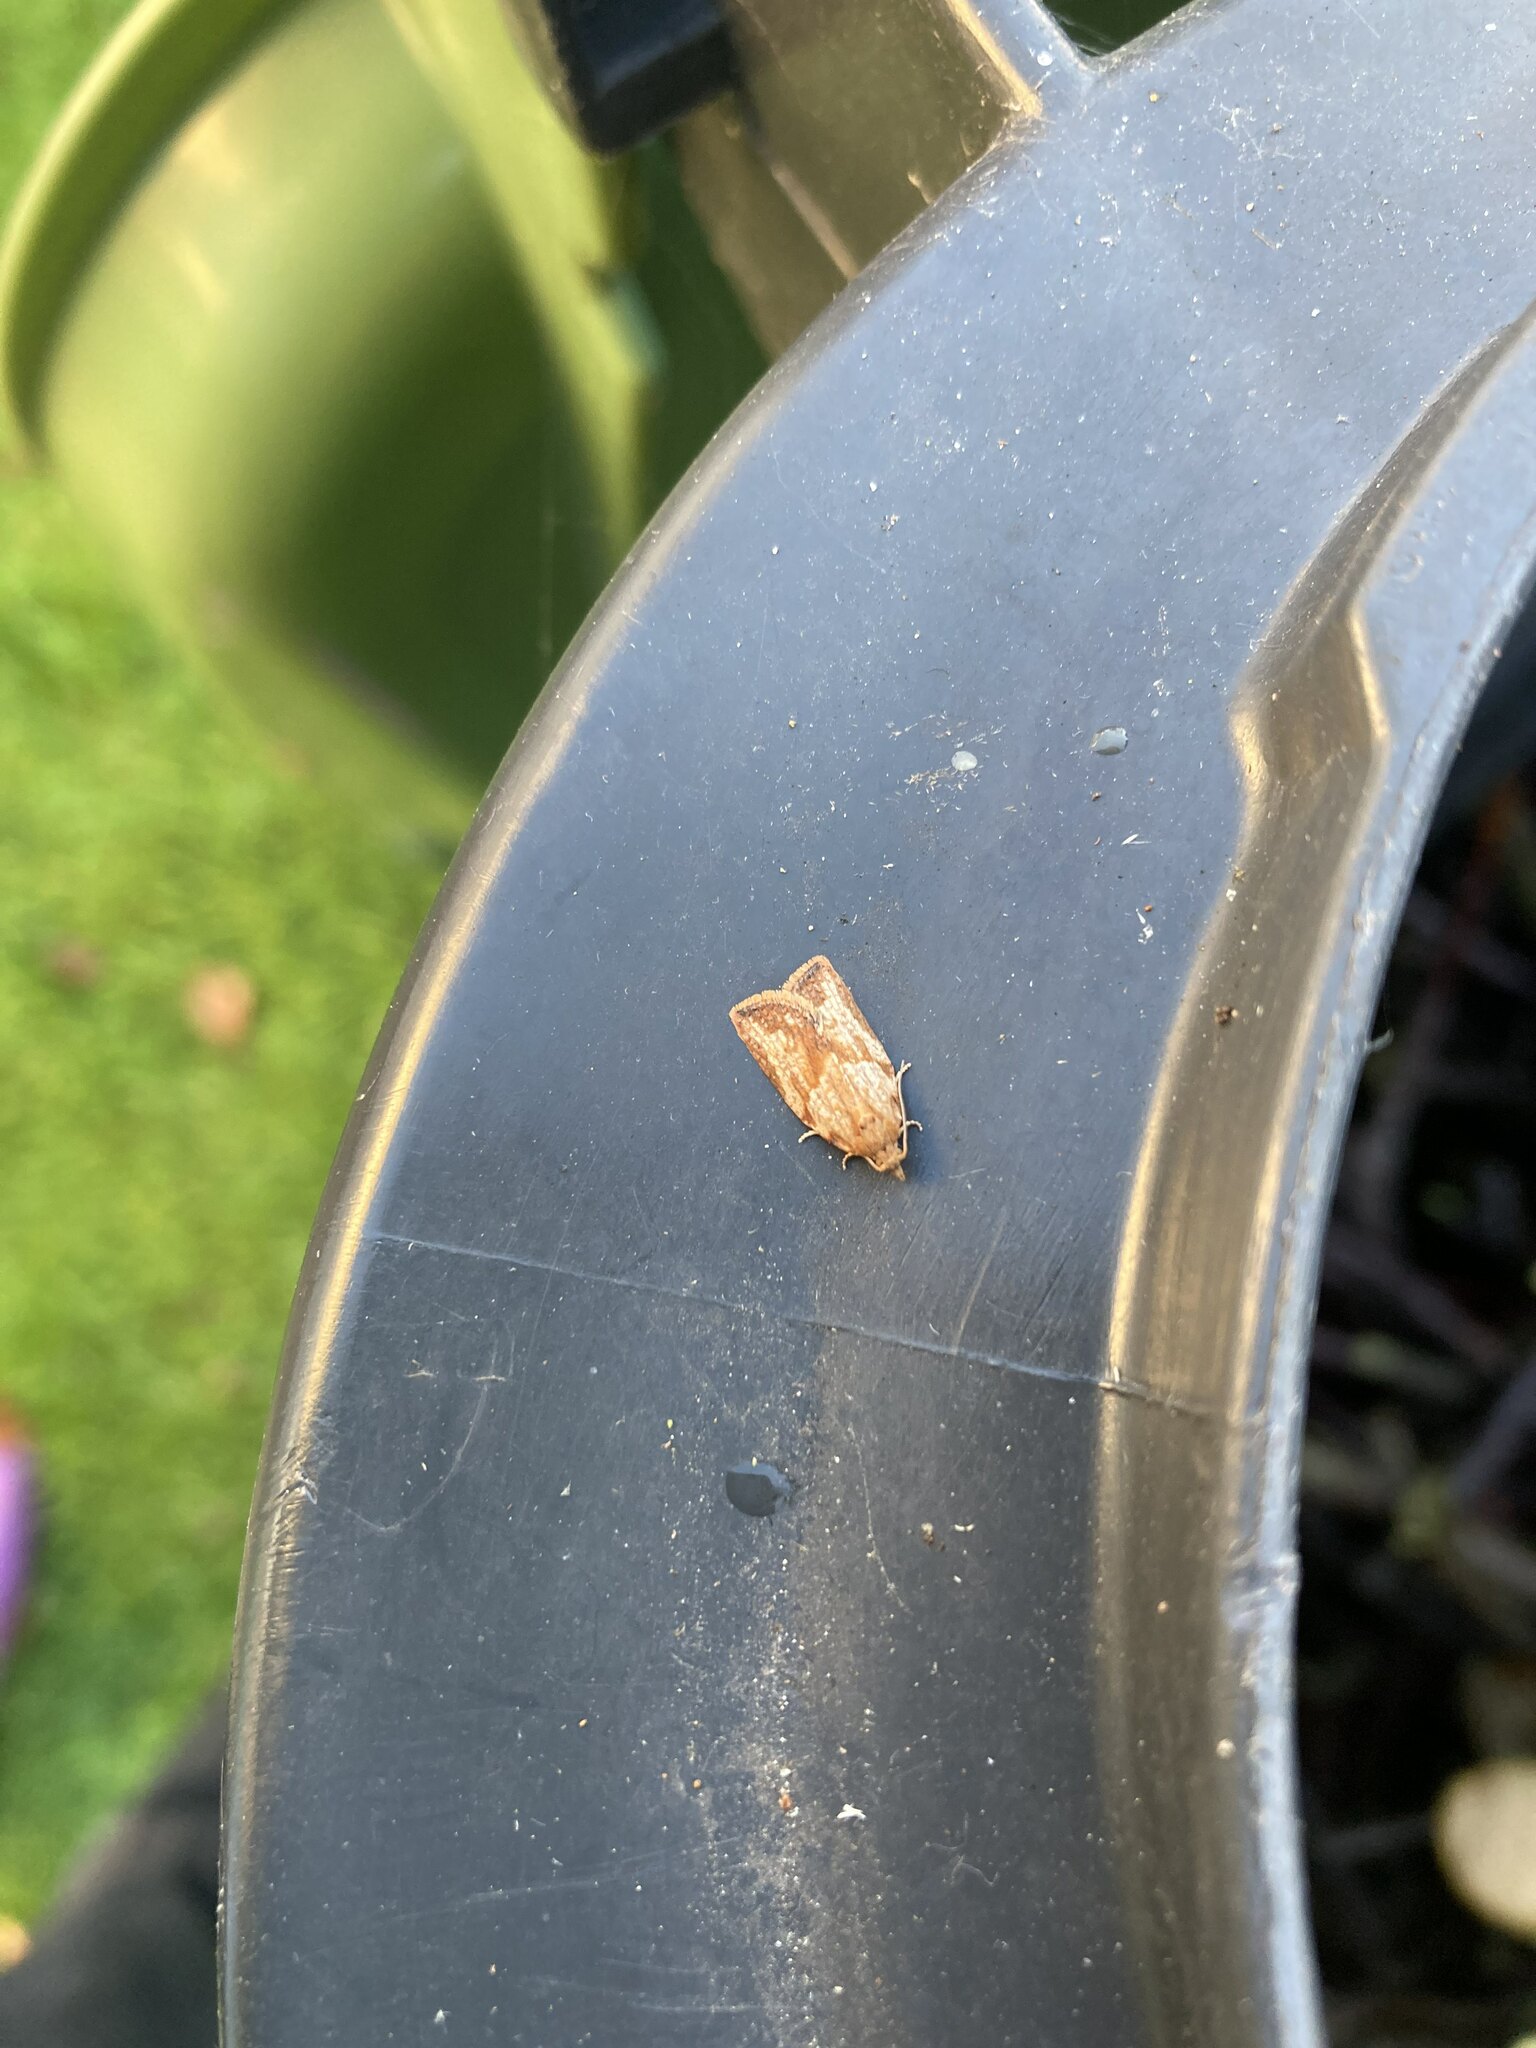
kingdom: Animalia
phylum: Arthropoda
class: Insecta
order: Lepidoptera
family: Tortricidae
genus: Epiphyas
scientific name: Epiphyas postvittana
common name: Light brown apple moth
